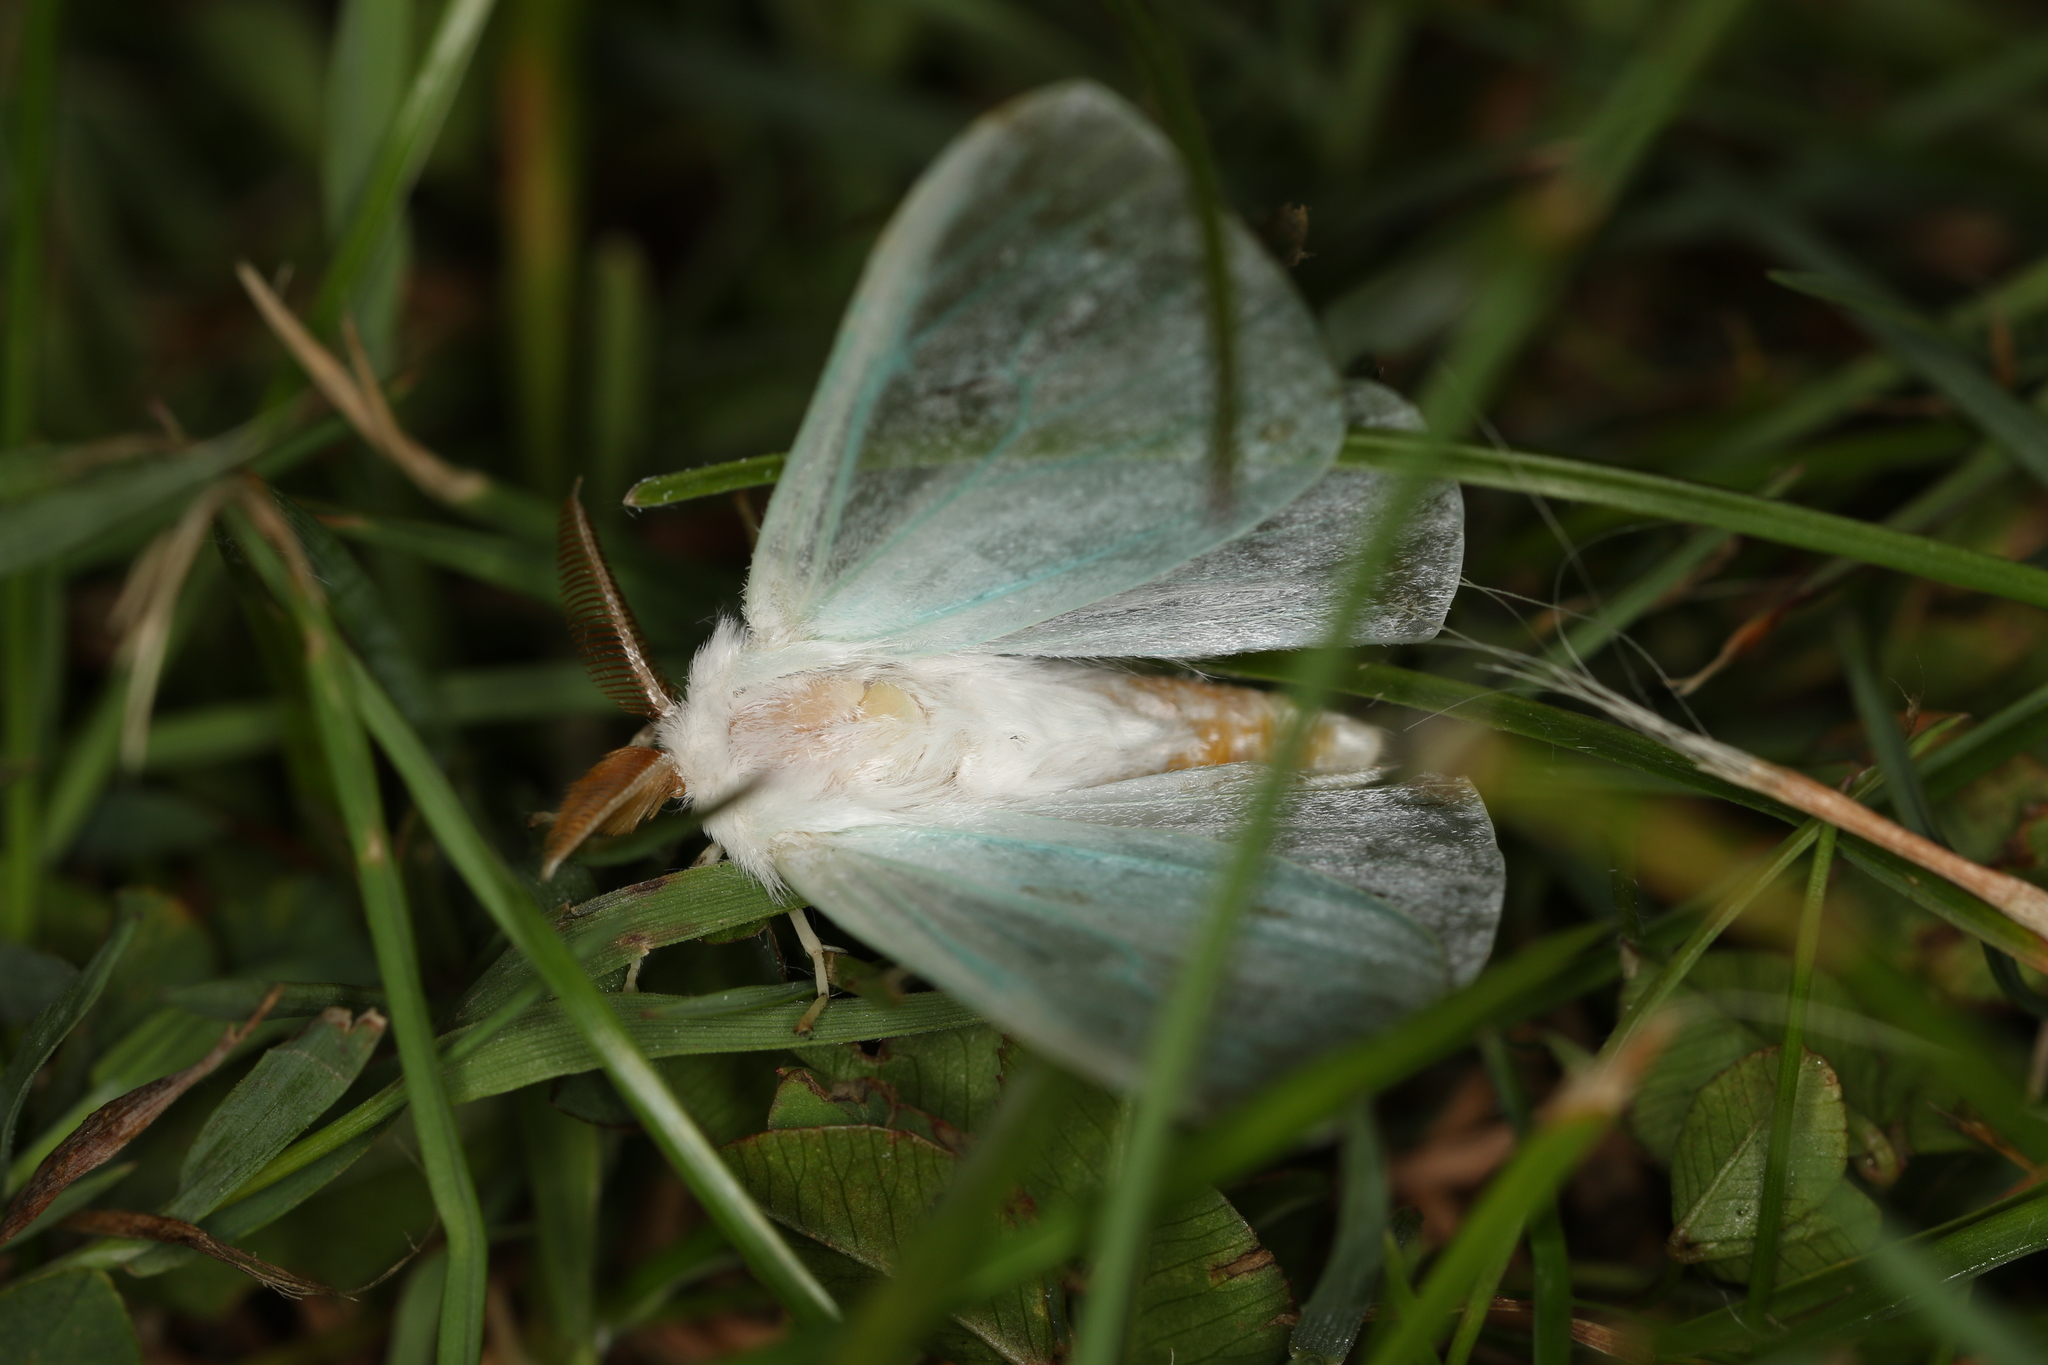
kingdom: Animalia
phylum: Arthropoda
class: Insecta
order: Lepidoptera
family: Erebidae
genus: Arctornis
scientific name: Arctornis l-nigrum
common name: Black v moth
